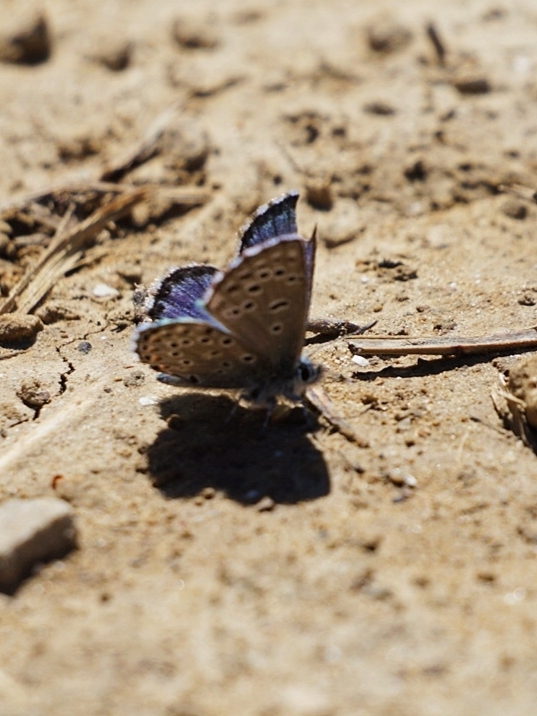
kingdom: Animalia
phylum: Arthropoda
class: Insecta
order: Lepidoptera
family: Lycaenidae
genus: Pseudophilotes
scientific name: Pseudophilotes baton
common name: Baton blue
